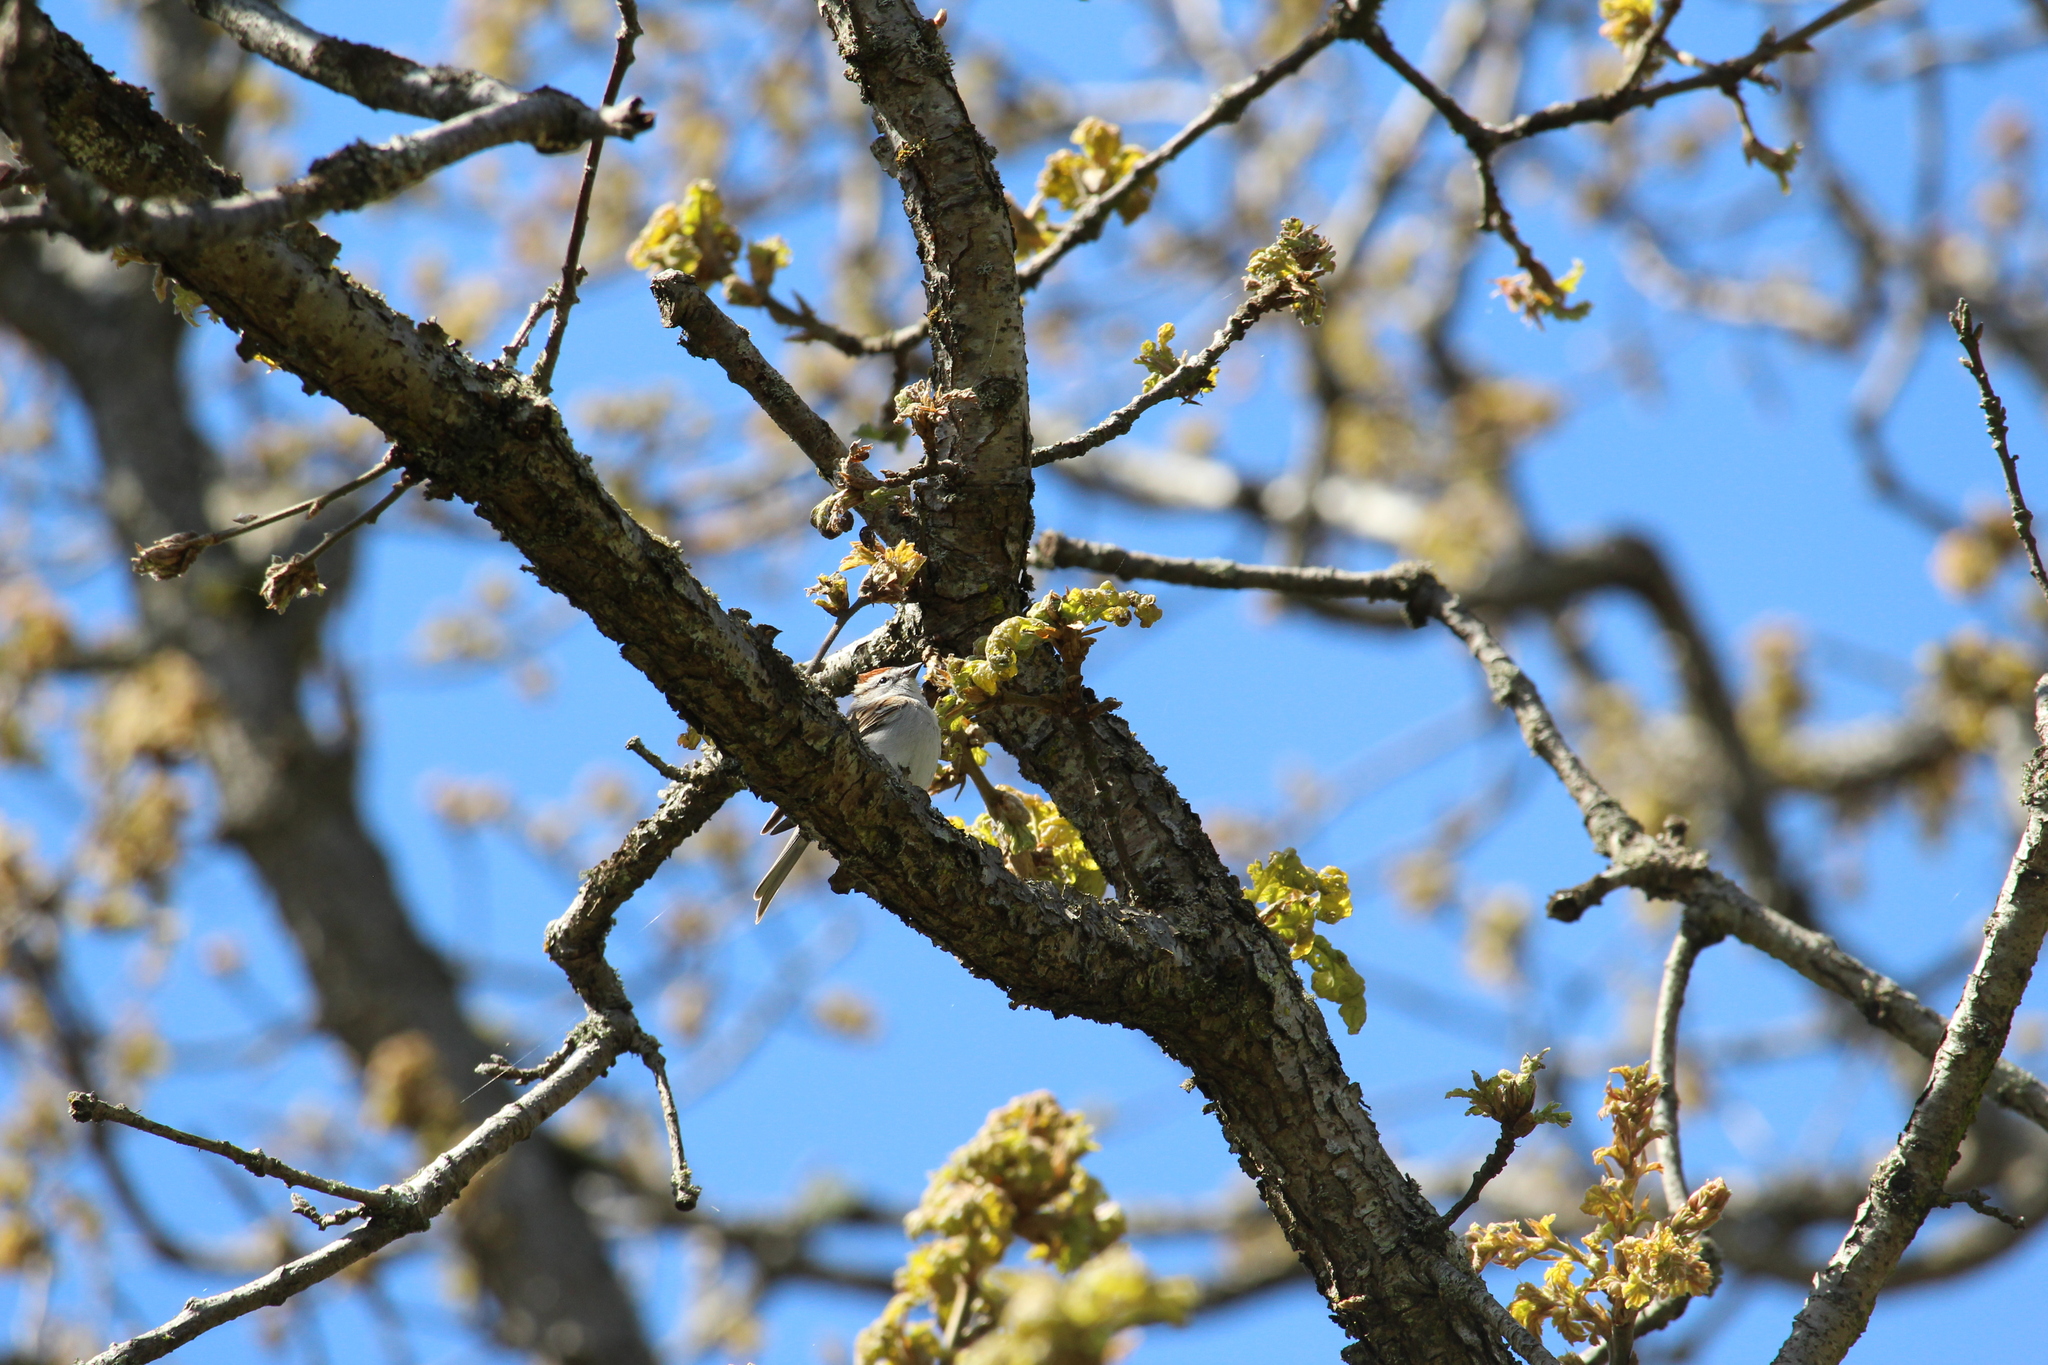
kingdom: Animalia
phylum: Chordata
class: Aves
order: Passeriformes
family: Passerellidae
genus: Spizella
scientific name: Spizella passerina
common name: Chipping sparrow
